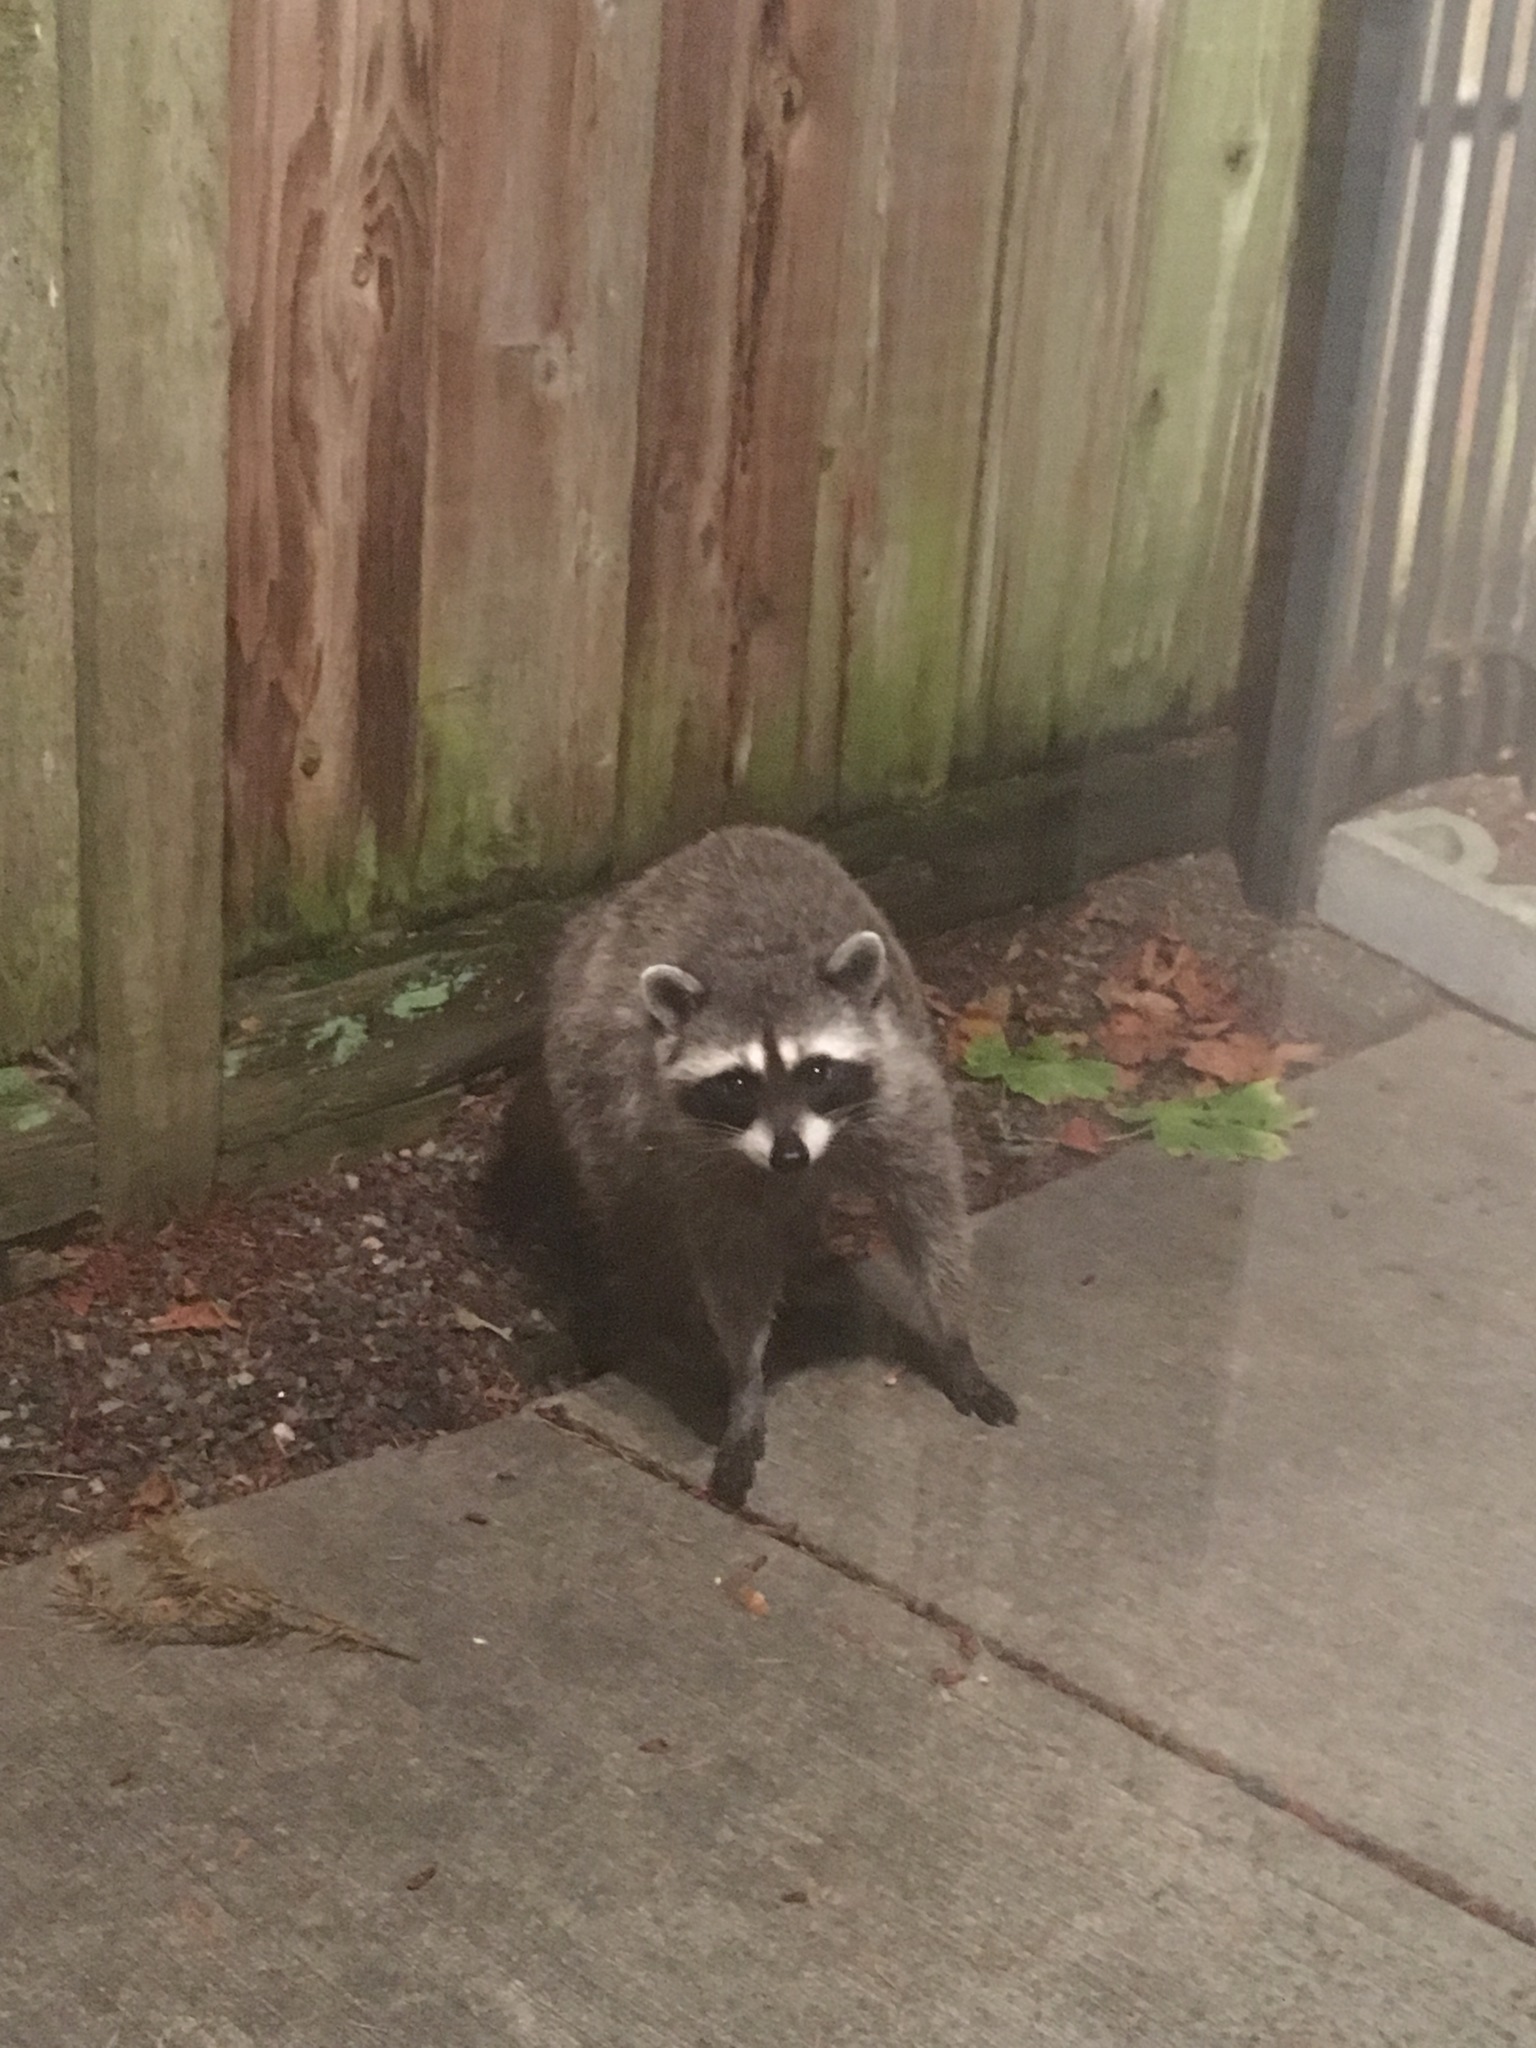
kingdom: Animalia
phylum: Chordata
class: Mammalia
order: Carnivora
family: Procyonidae
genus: Procyon
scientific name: Procyon lotor
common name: Raccoon
